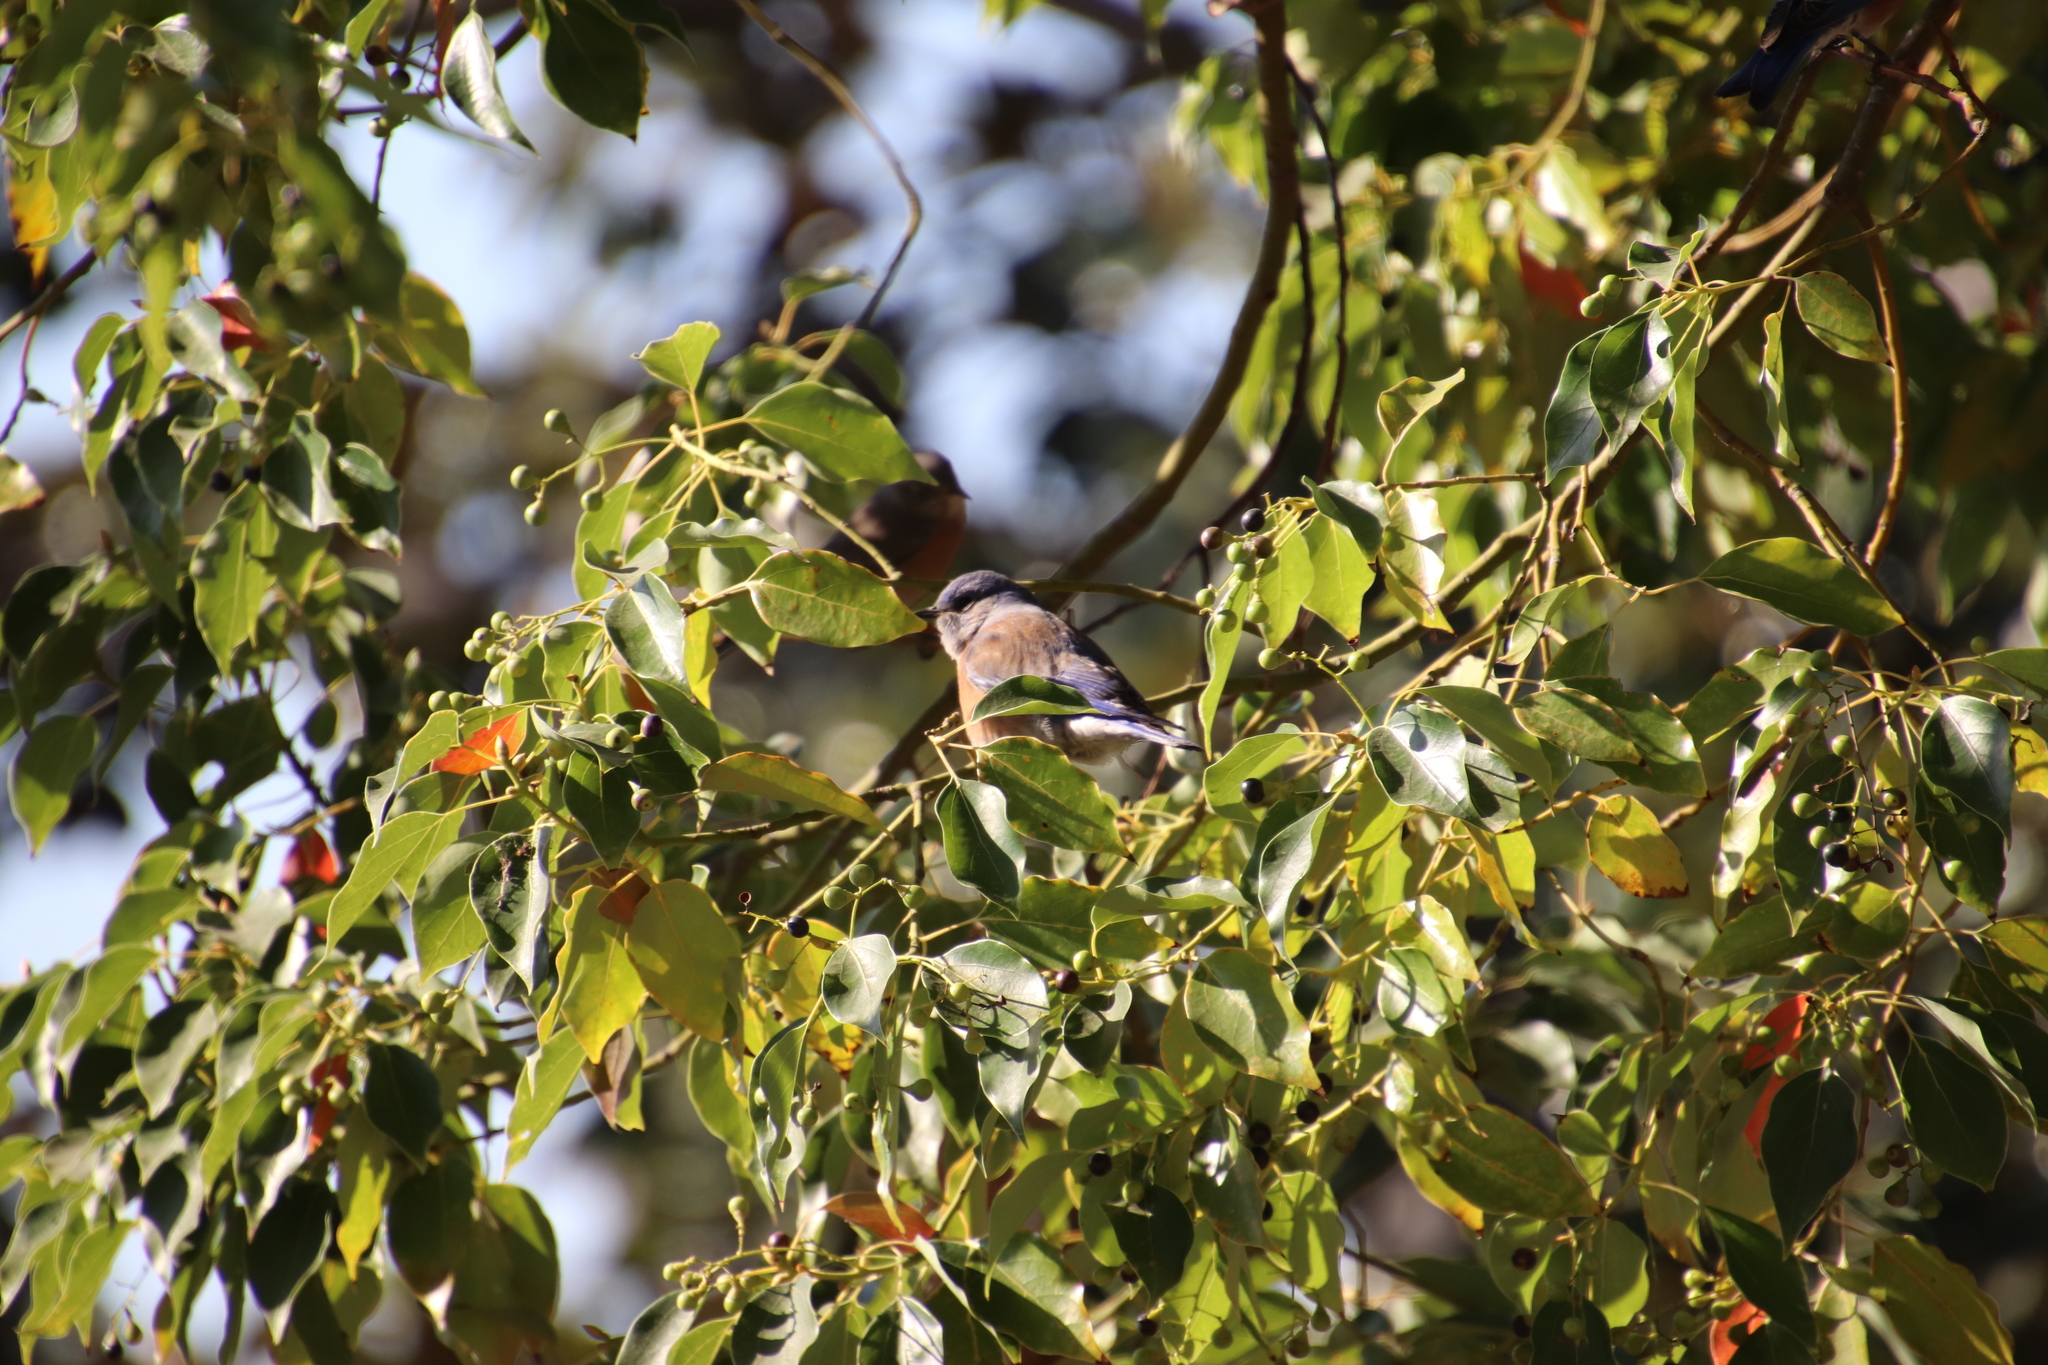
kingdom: Animalia
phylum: Chordata
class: Aves
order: Passeriformes
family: Turdidae
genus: Sialia
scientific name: Sialia mexicana
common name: Western bluebird
